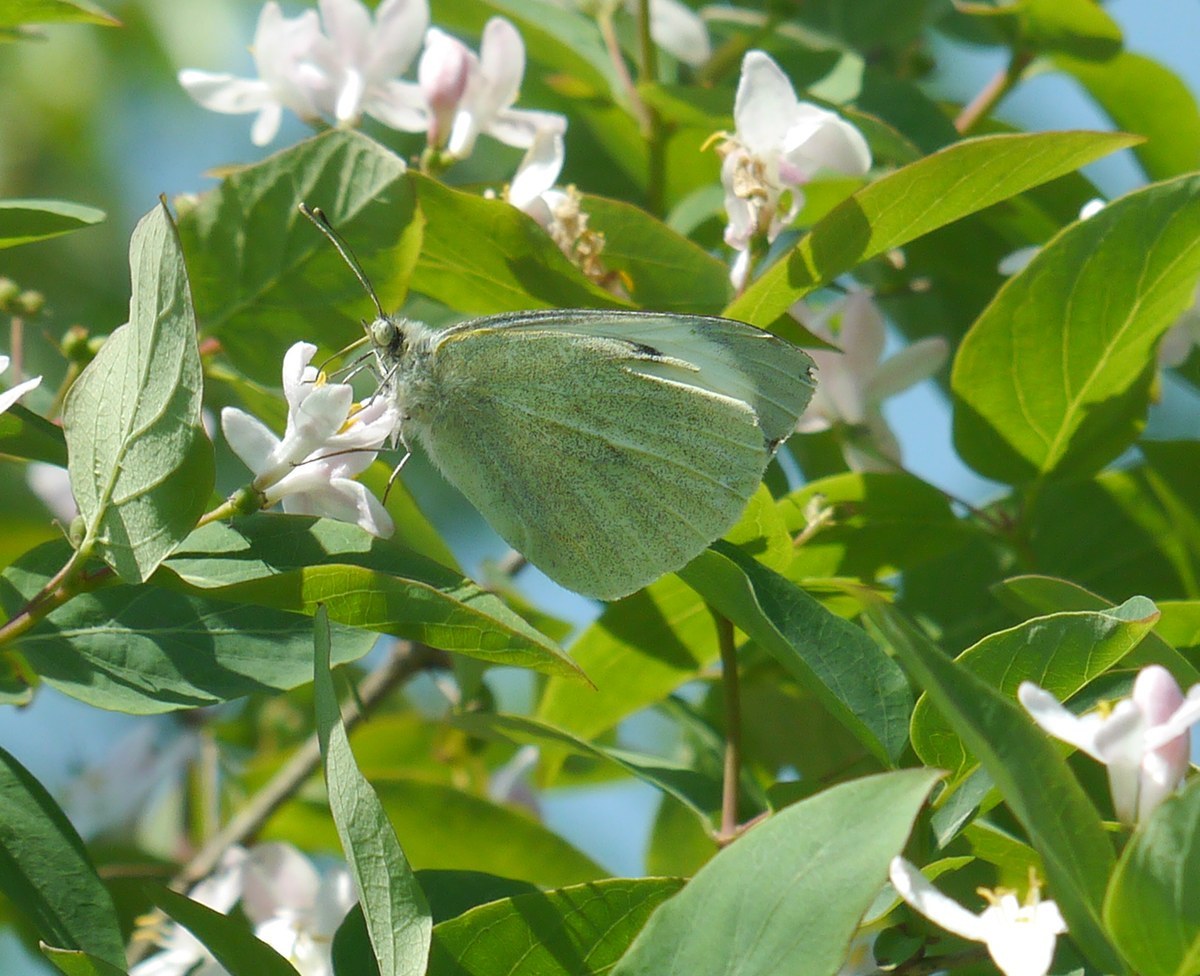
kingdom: Animalia
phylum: Arthropoda
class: Insecta
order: Lepidoptera
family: Pieridae
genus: Pieris
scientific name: Pieris brassicae
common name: Large white
